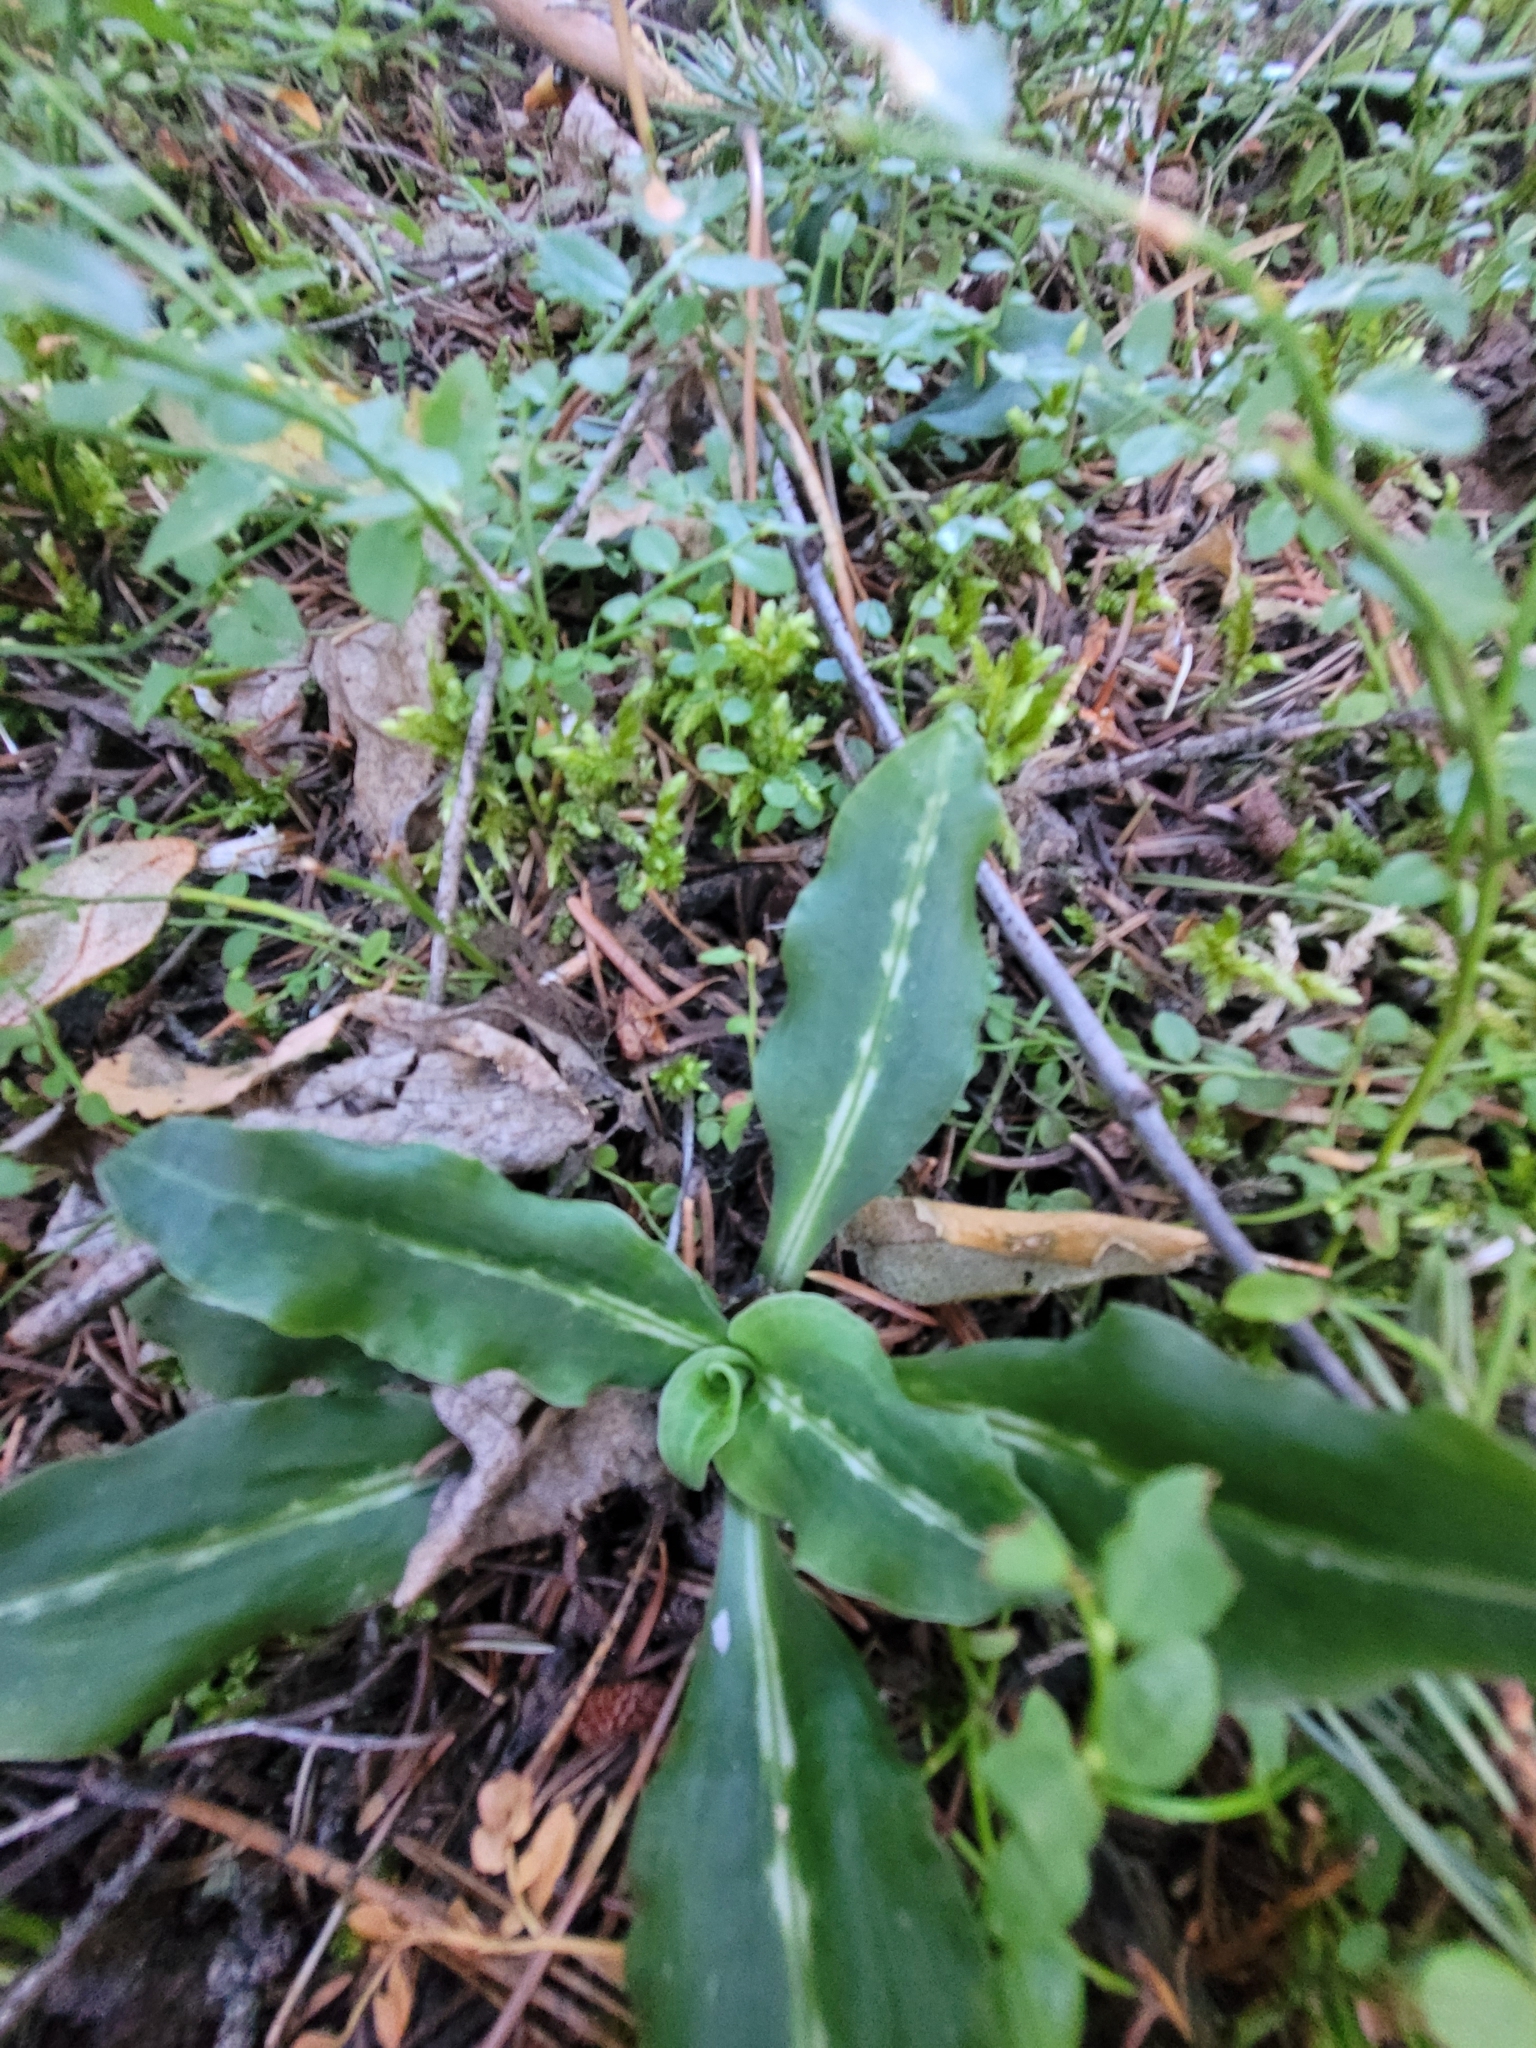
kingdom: Plantae
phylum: Tracheophyta
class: Liliopsida
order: Asparagales
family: Orchidaceae
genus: Goodyera
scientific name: Goodyera oblongifolia
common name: Giant rattlesnake-plantain
